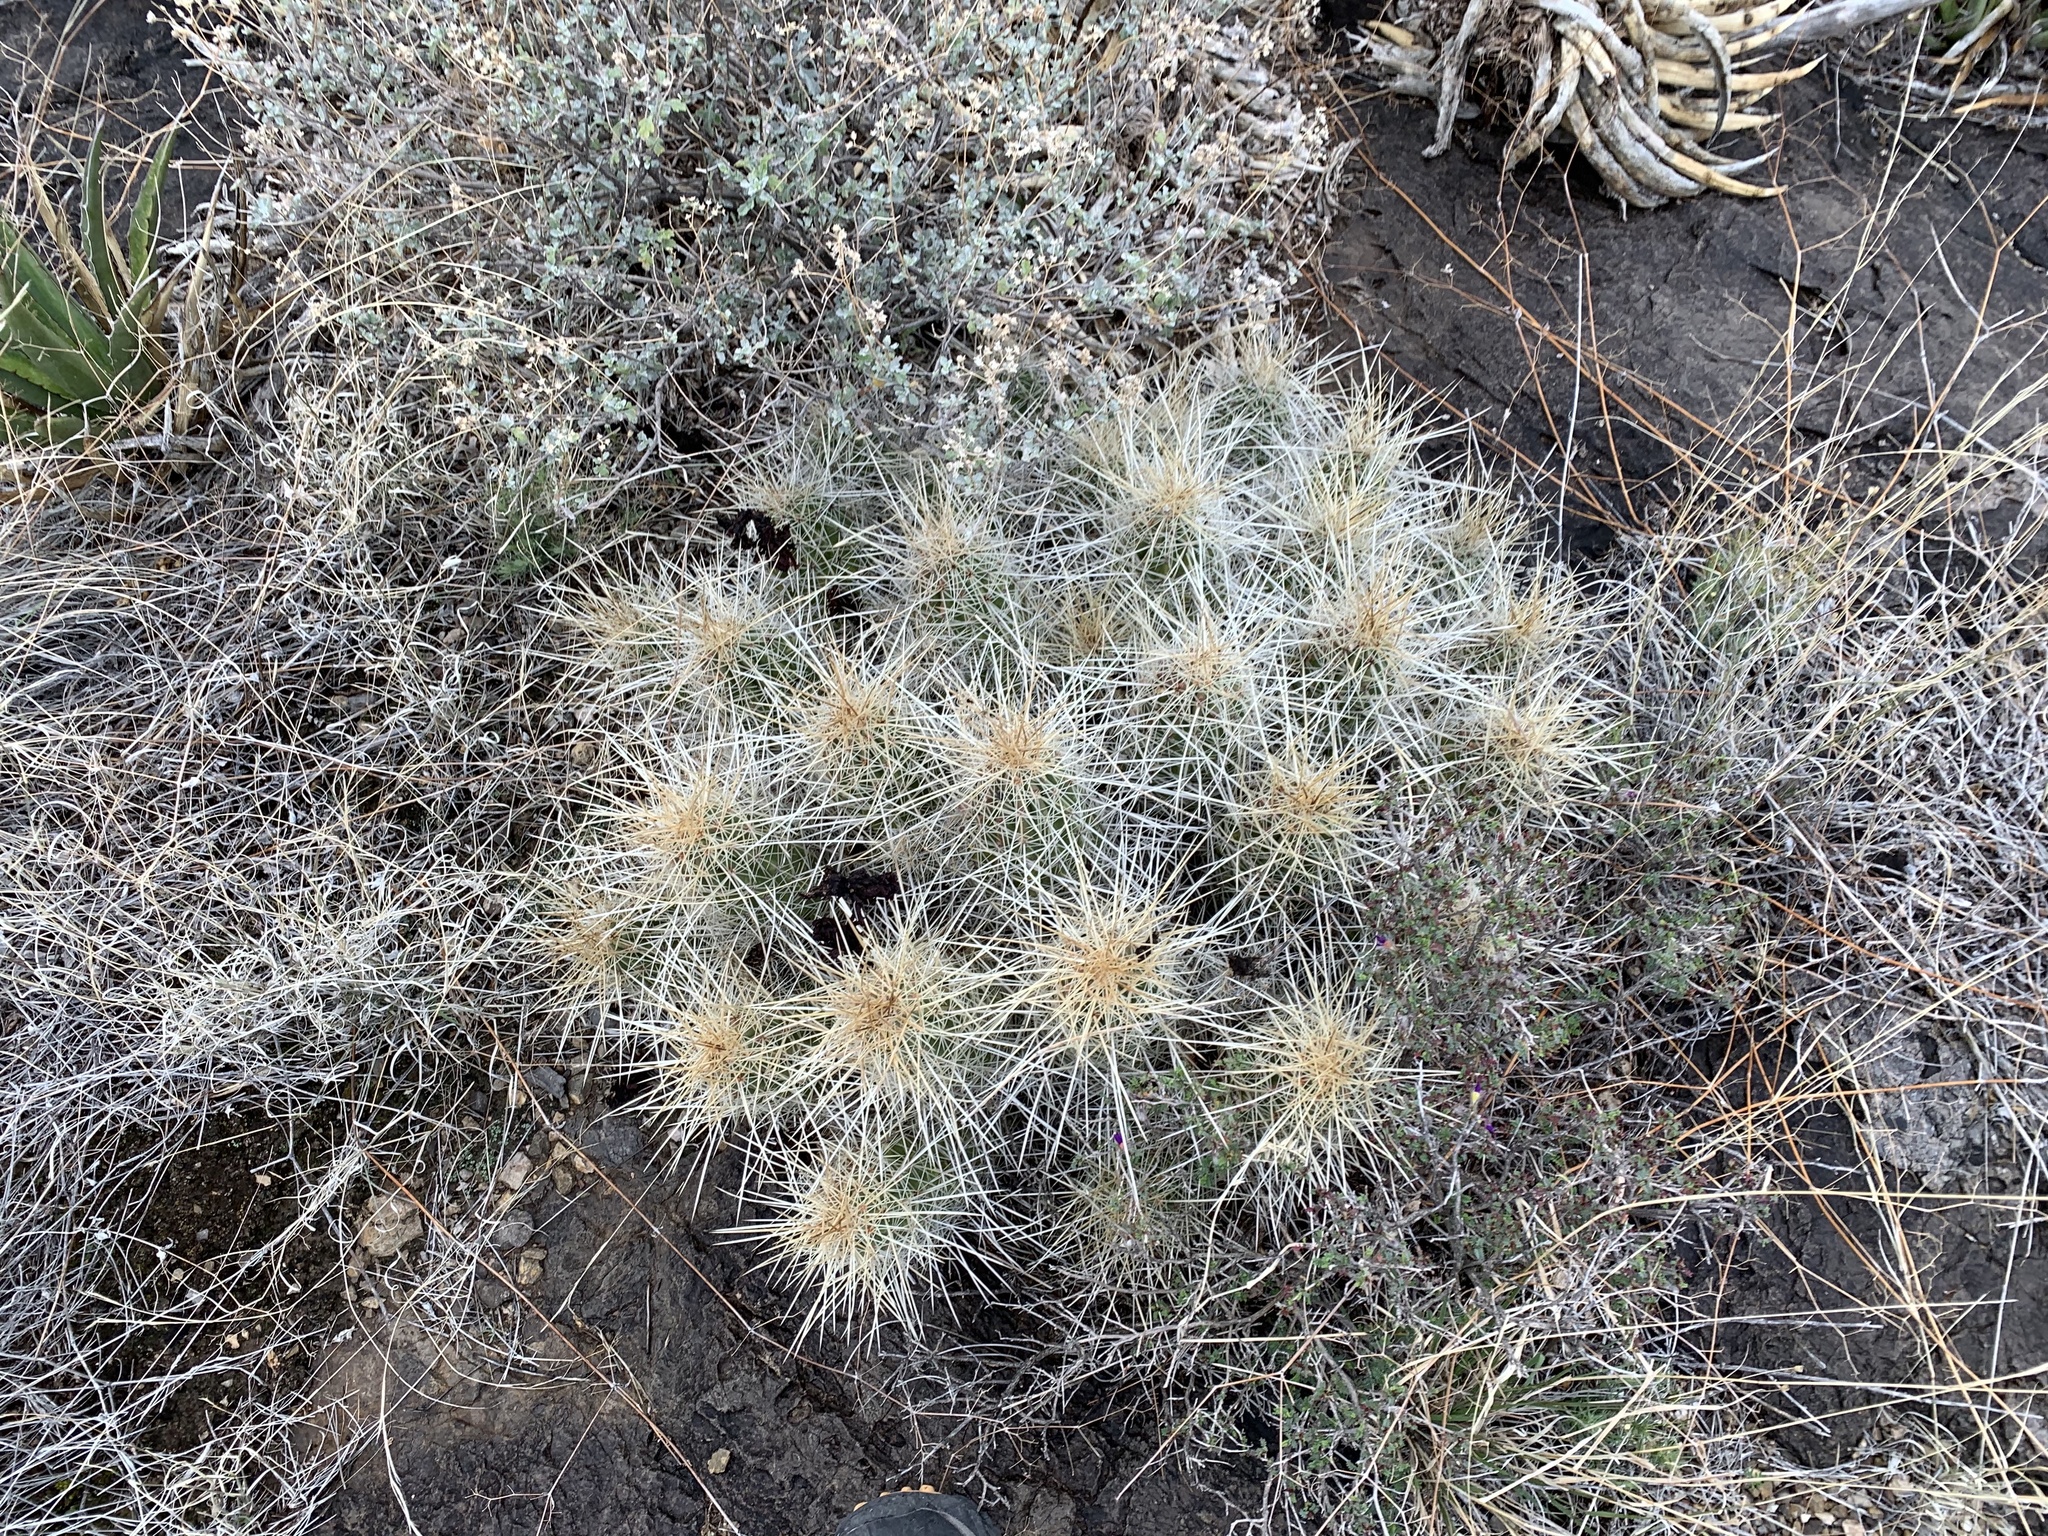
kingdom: Plantae
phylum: Tracheophyta
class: Magnoliopsida
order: Caryophyllales
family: Cactaceae
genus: Echinocereus
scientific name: Echinocereus stramineus
